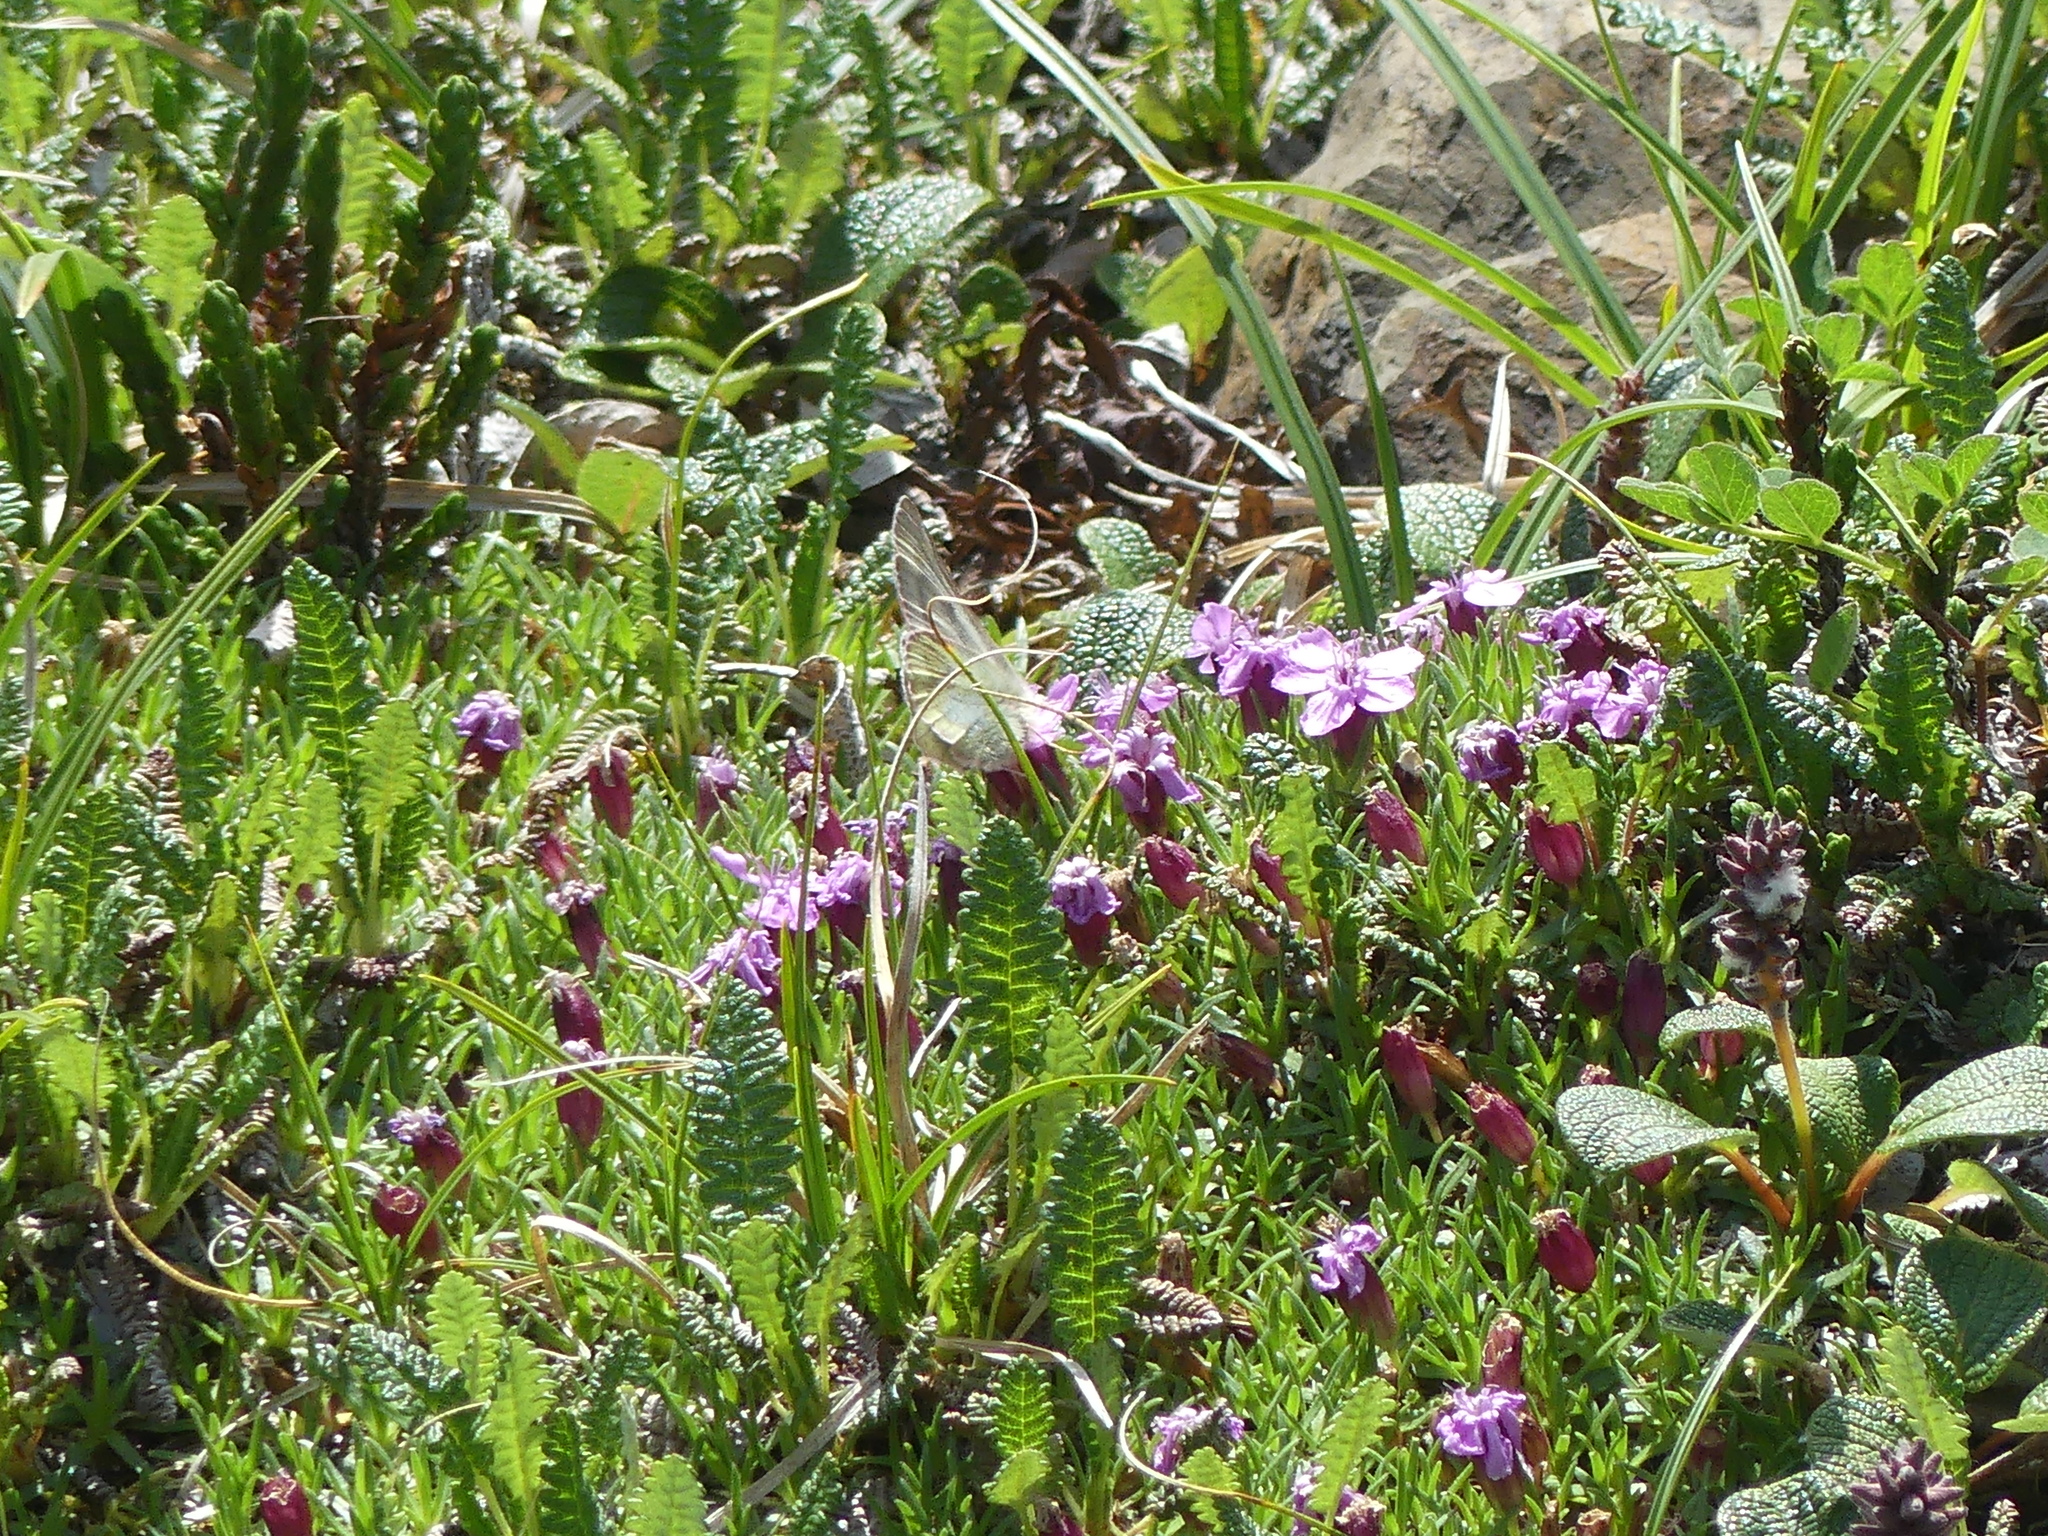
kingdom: Plantae
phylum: Tracheophyta
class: Magnoliopsida
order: Caryophyllales
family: Caryophyllaceae
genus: Silene
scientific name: Silene acaulis
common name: Moss campion
